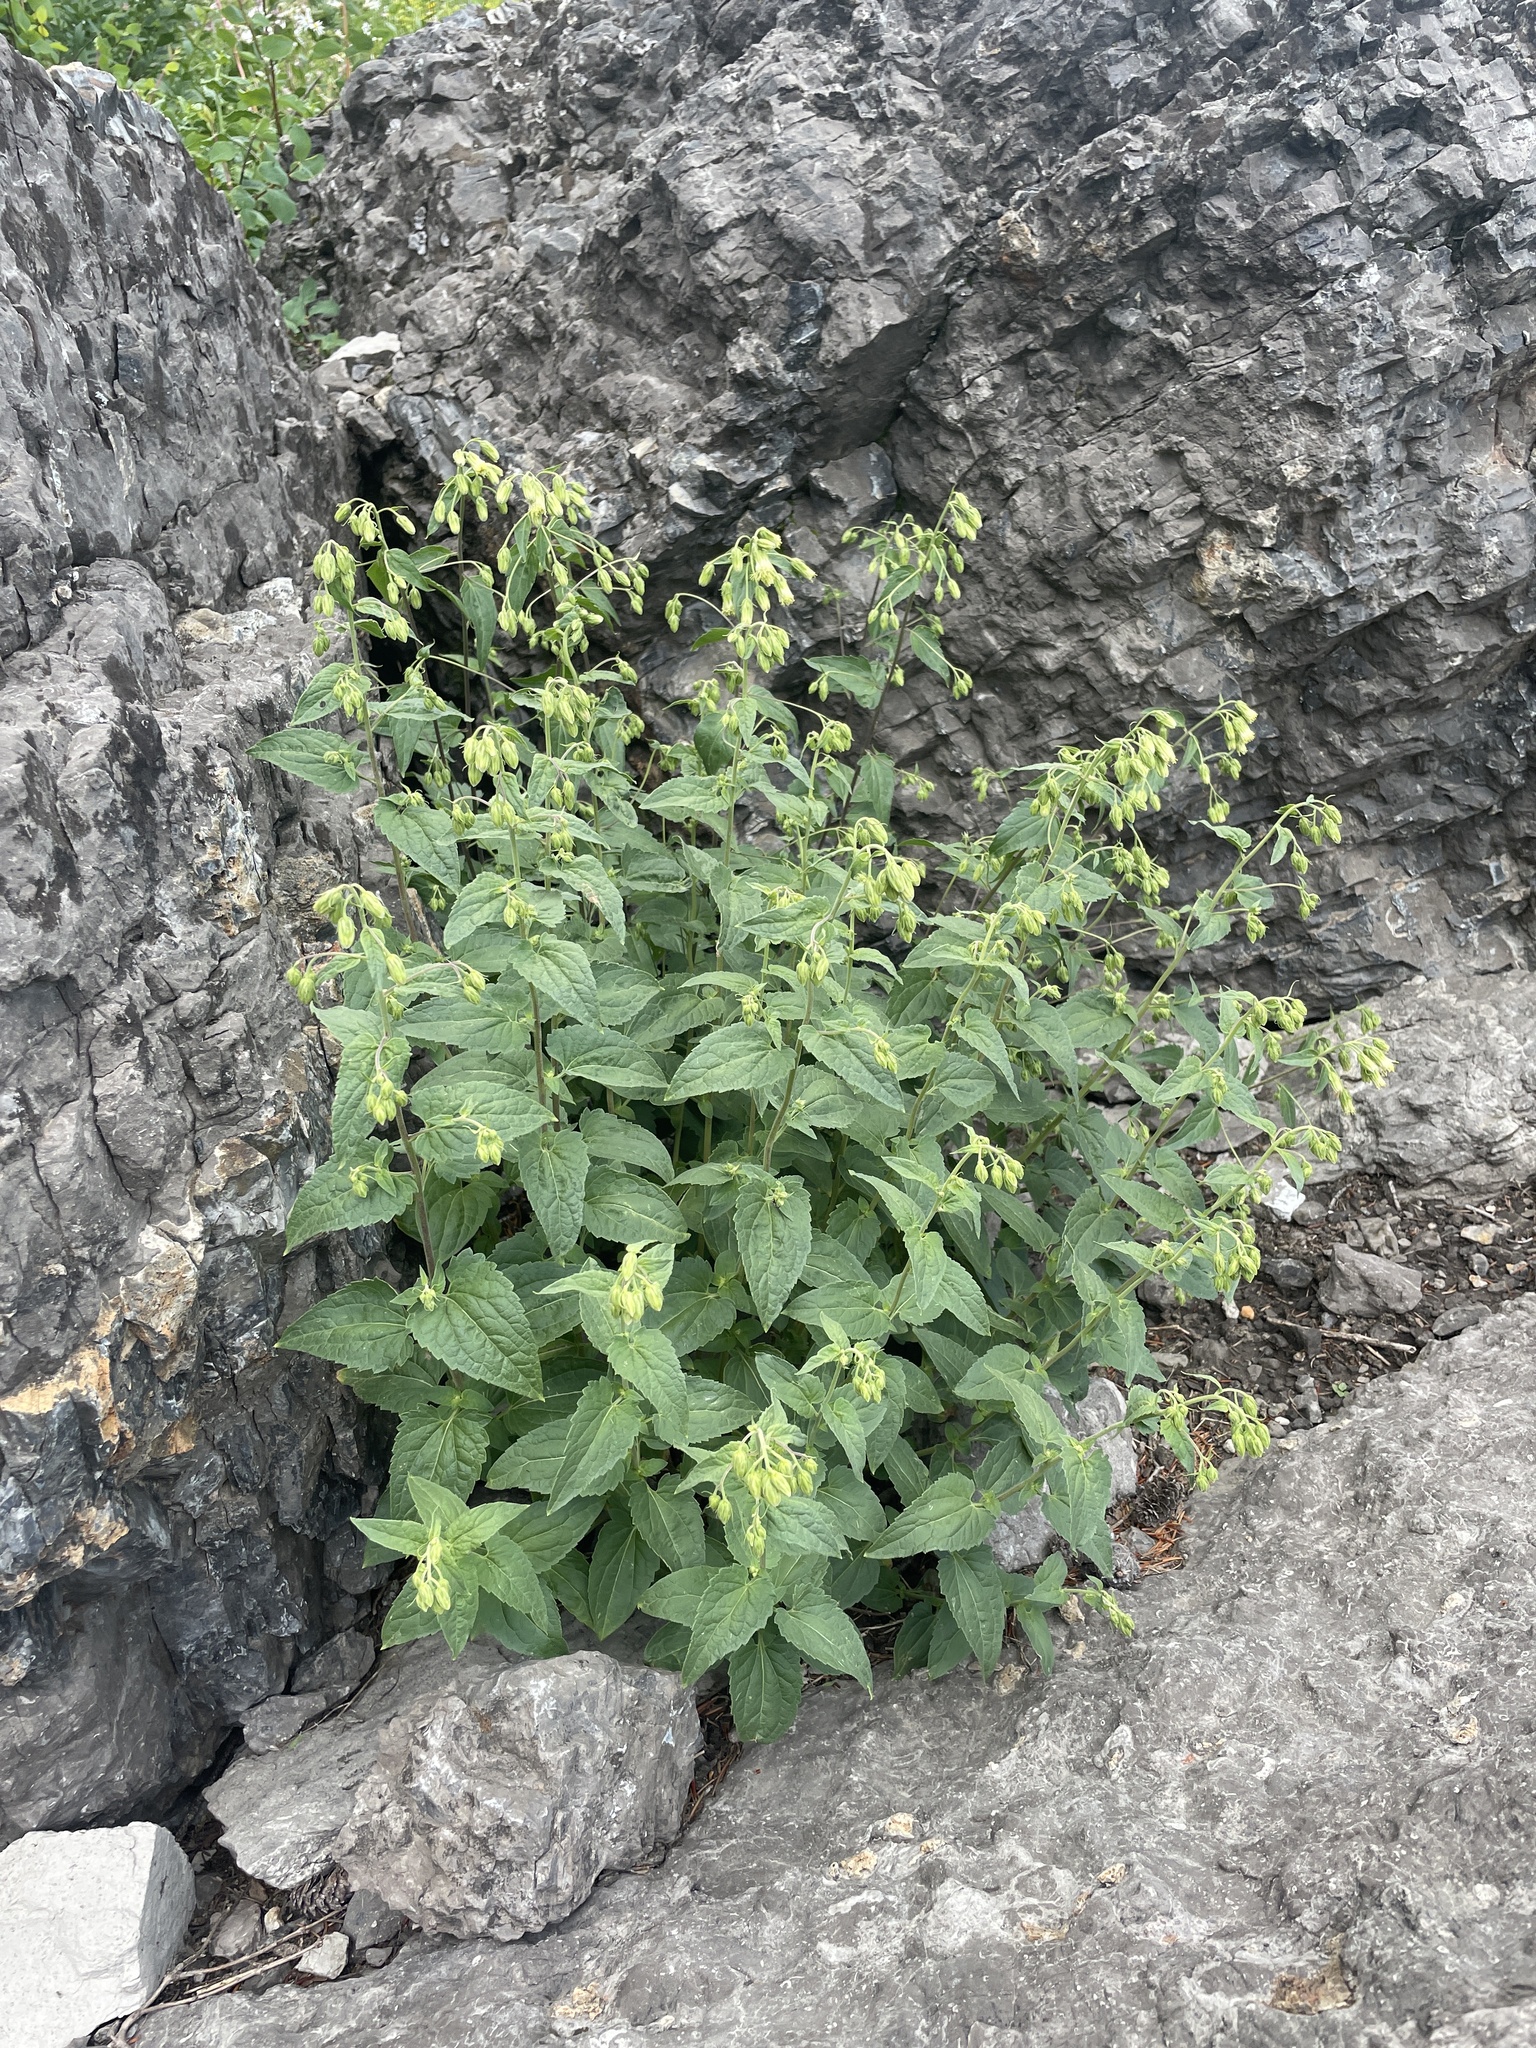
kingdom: Plantae
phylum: Tracheophyta
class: Magnoliopsida
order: Asterales
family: Asteraceae
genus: Brickellia
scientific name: Brickellia grandiflora
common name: Large-flowered brickellia
